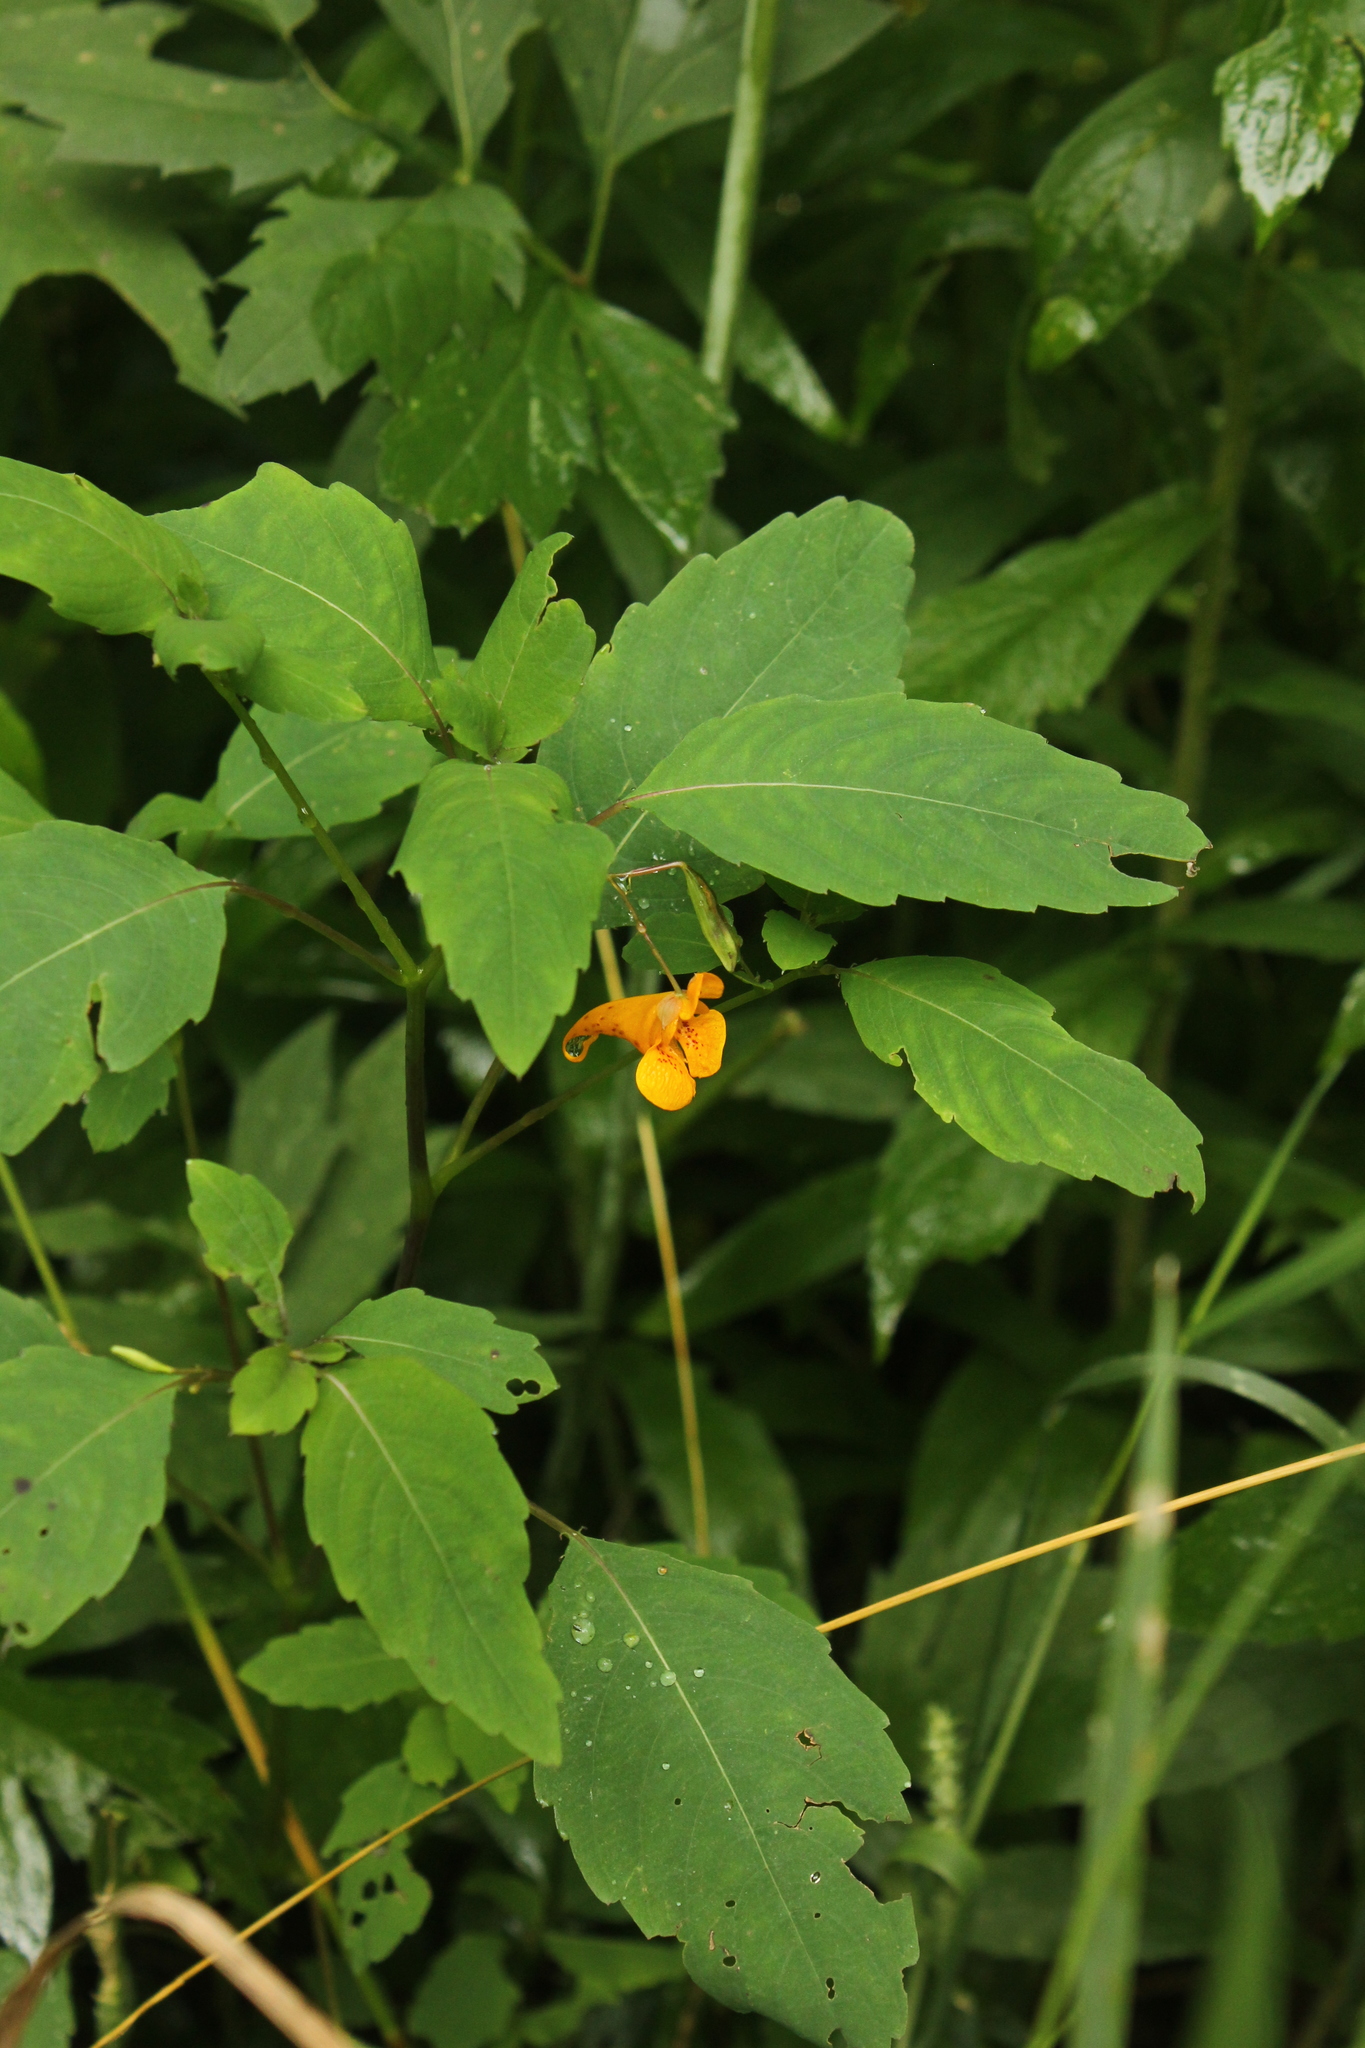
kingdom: Plantae
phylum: Tracheophyta
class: Magnoliopsida
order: Ericales
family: Balsaminaceae
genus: Impatiens
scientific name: Impatiens capensis
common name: Orange balsam
